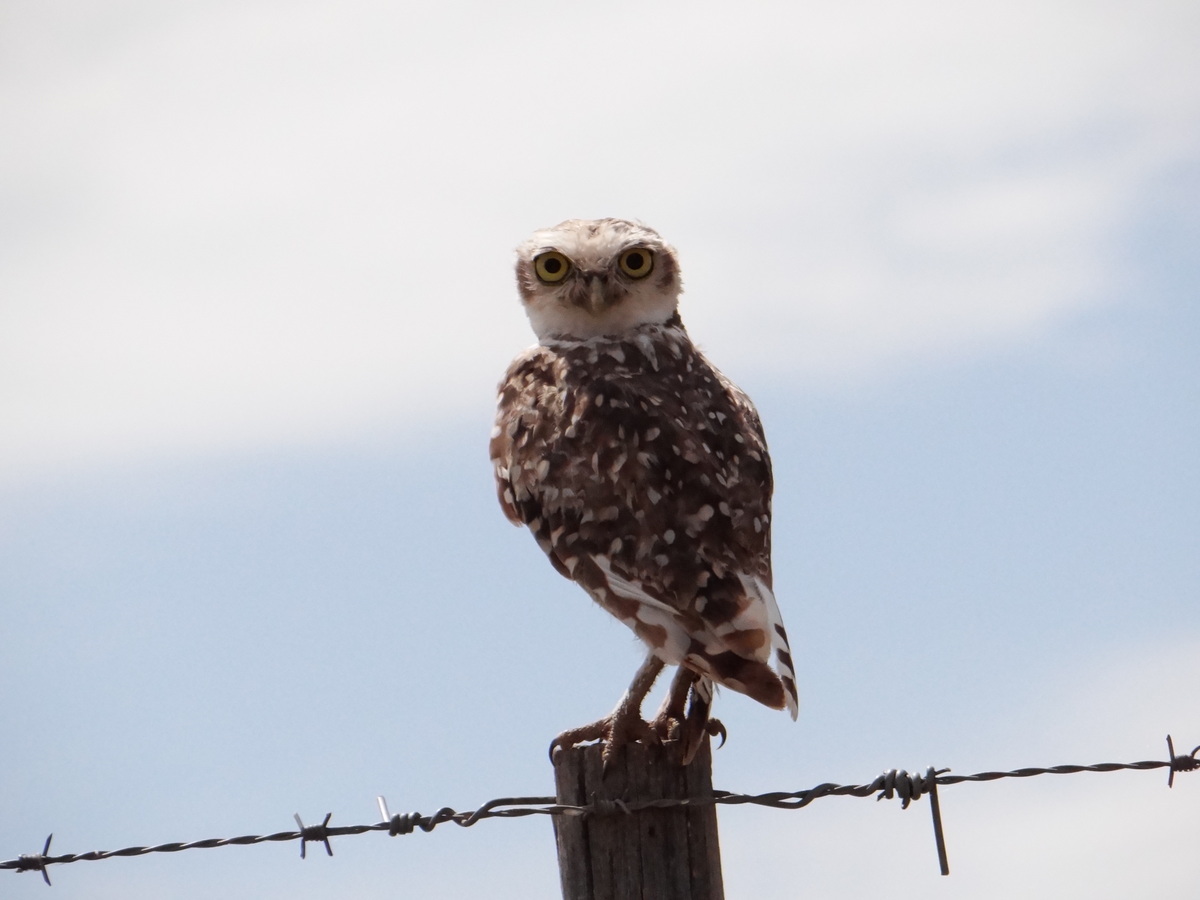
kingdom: Animalia
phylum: Chordata
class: Aves
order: Strigiformes
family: Strigidae
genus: Athene
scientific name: Athene cunicularia
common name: Burrowing owl
